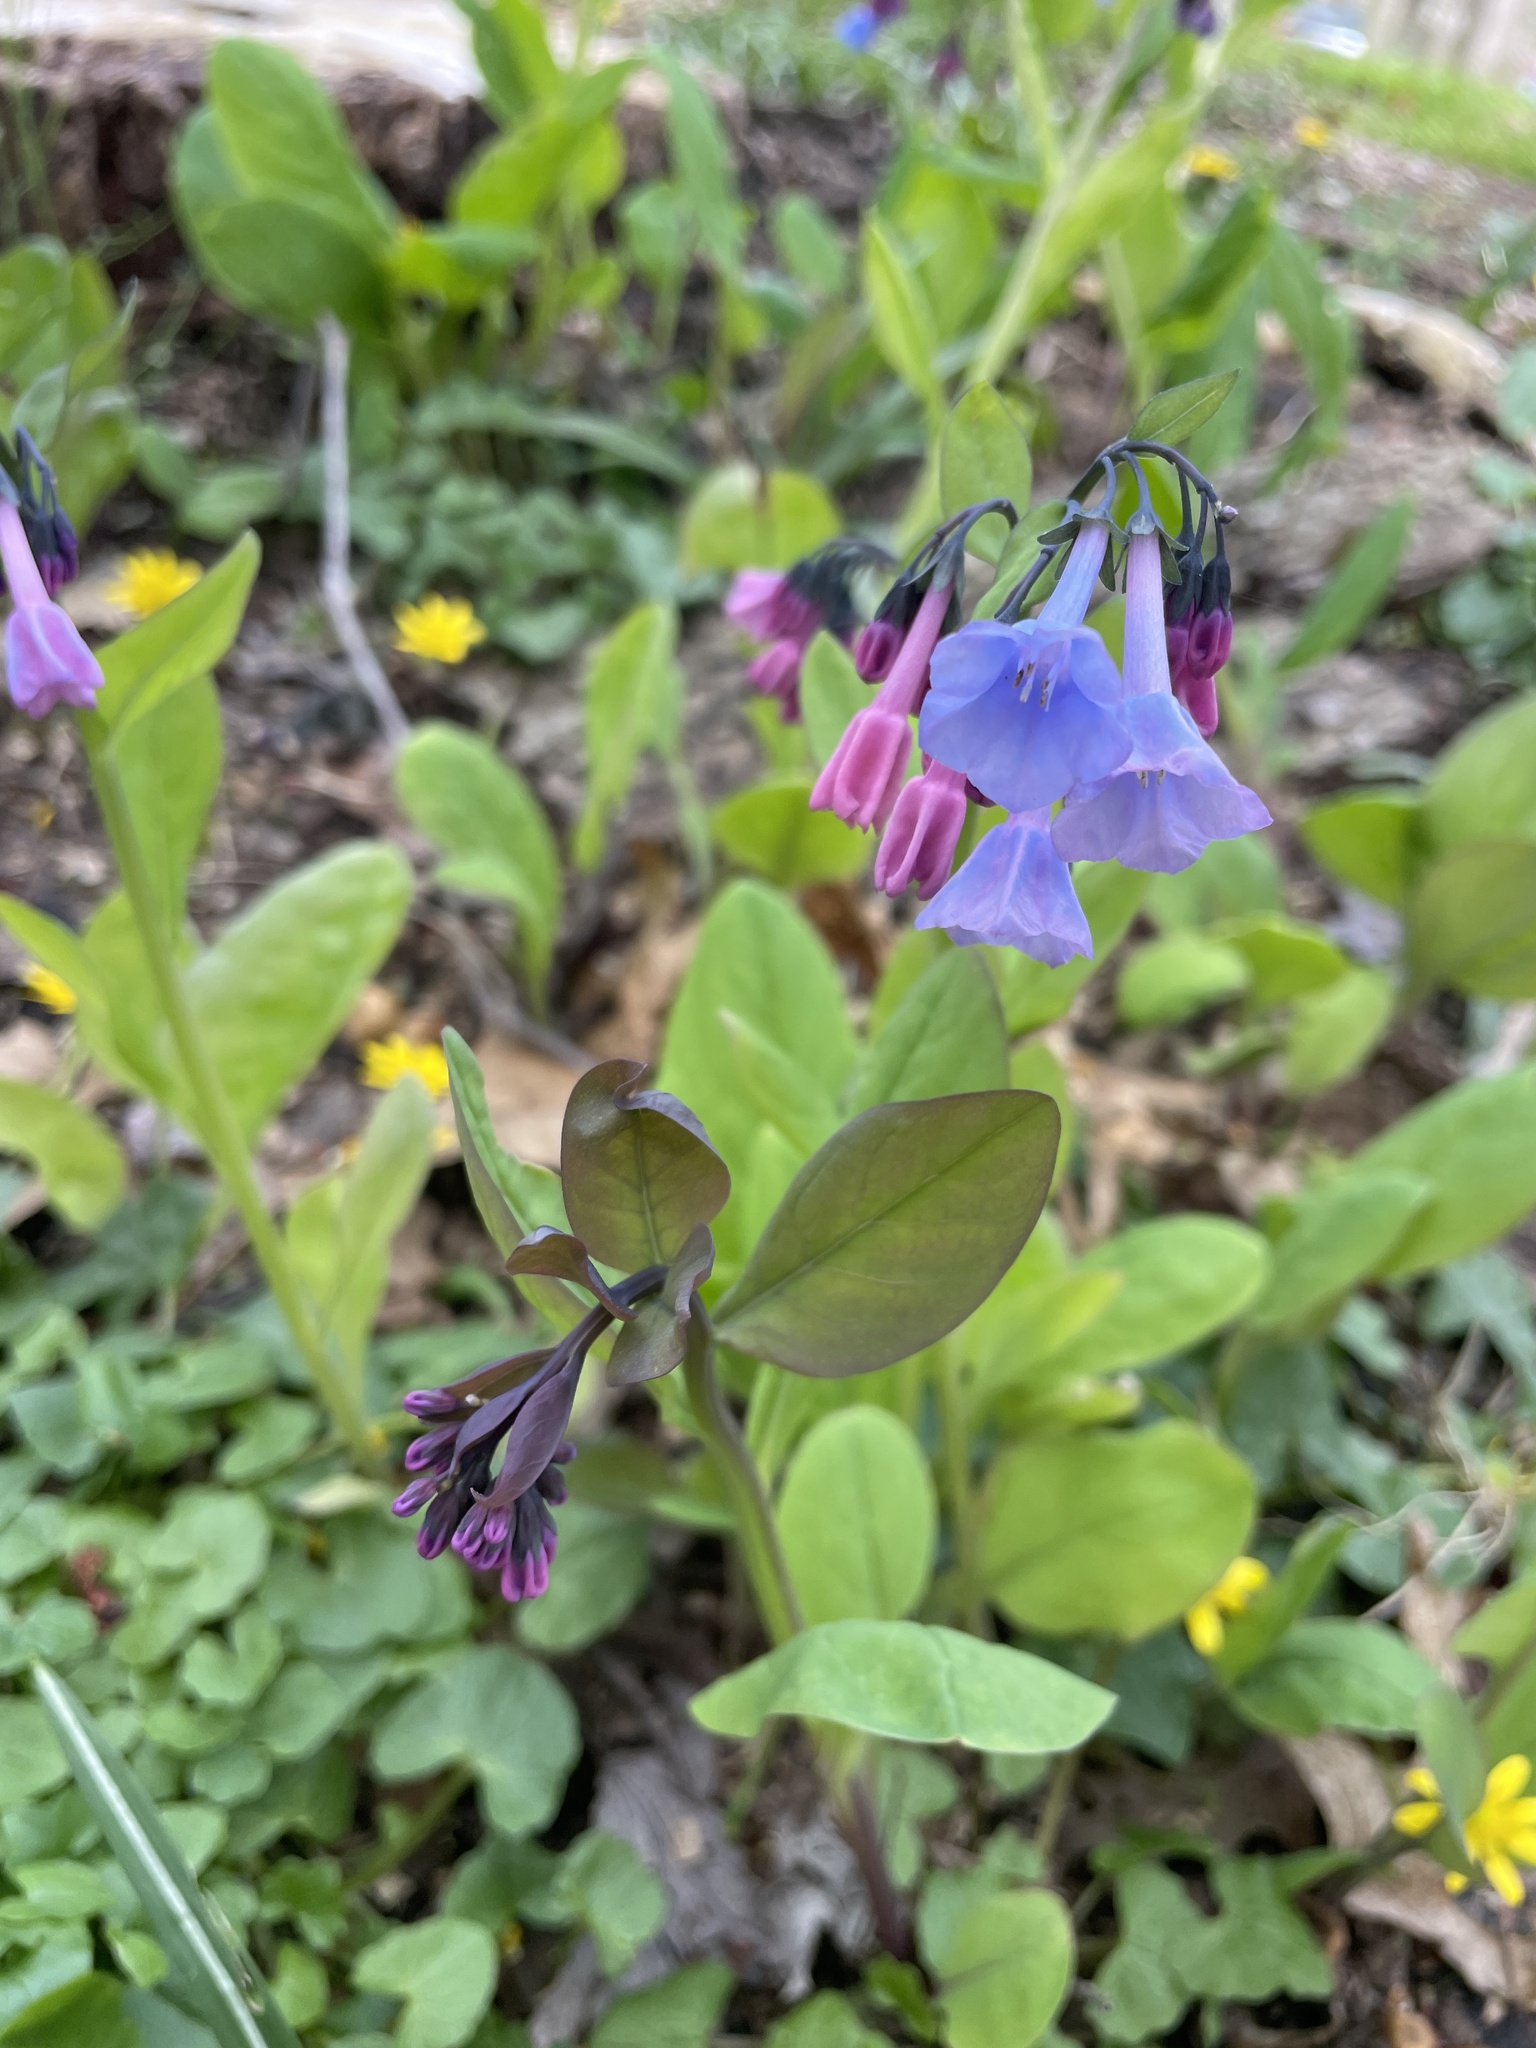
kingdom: Plantae
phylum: Tracheophyta
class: Magnoliopsida
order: Boraginales
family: Boraginaceae
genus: Mertensia
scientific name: Mertensia virginica
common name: Virginia bluebells
